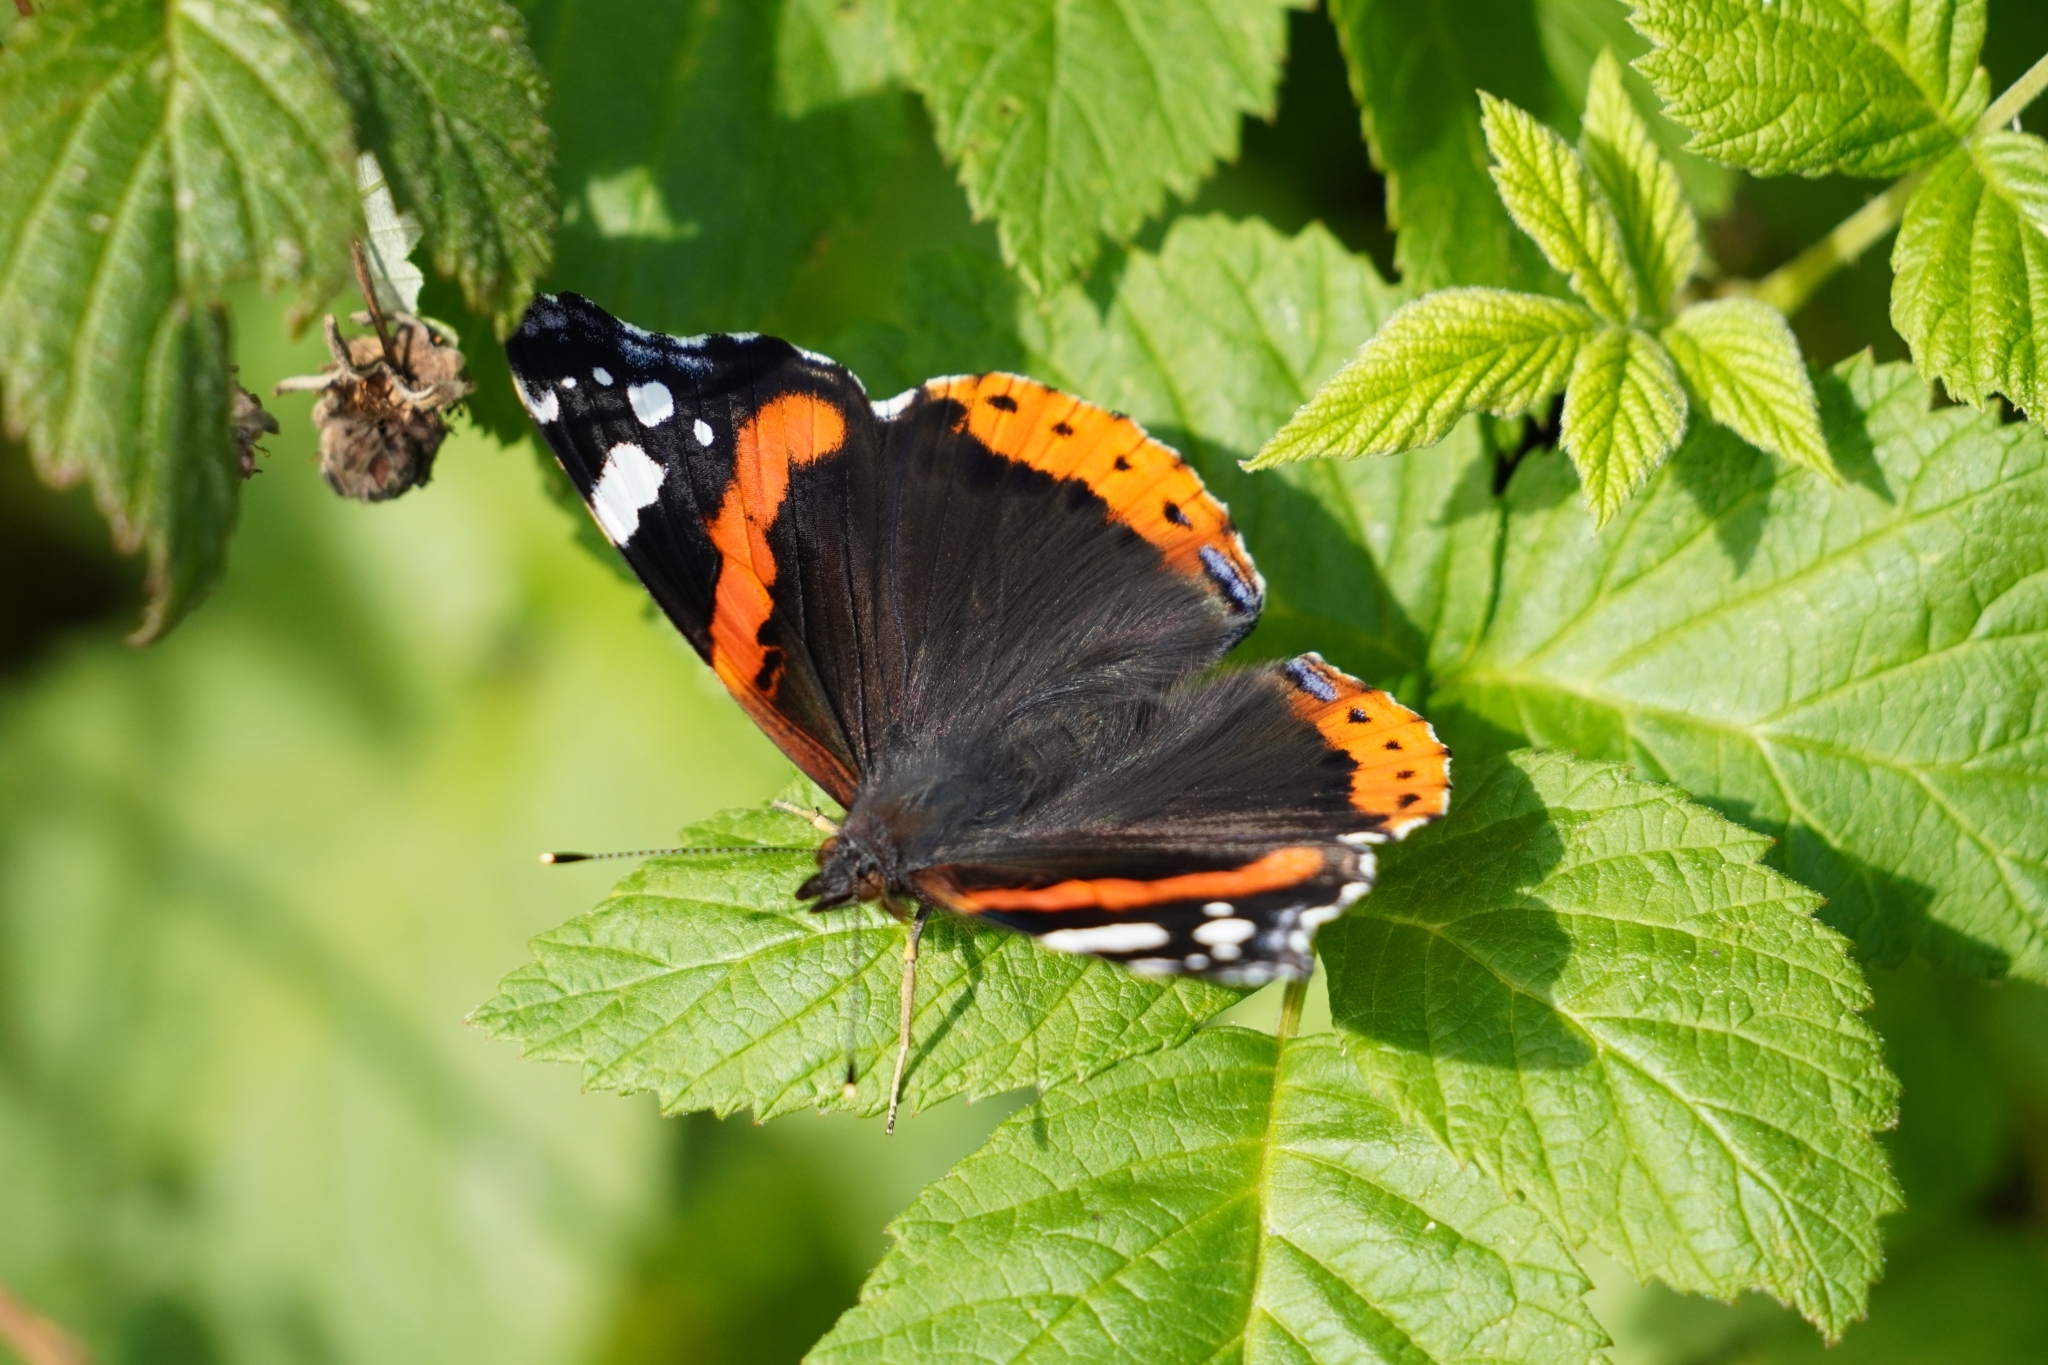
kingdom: Animalia
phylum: Arthropoda
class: Insecta
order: Lepidoptera
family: Nymphalidae
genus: Vanessa
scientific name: Vanessa atalanta
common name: Red admiral
